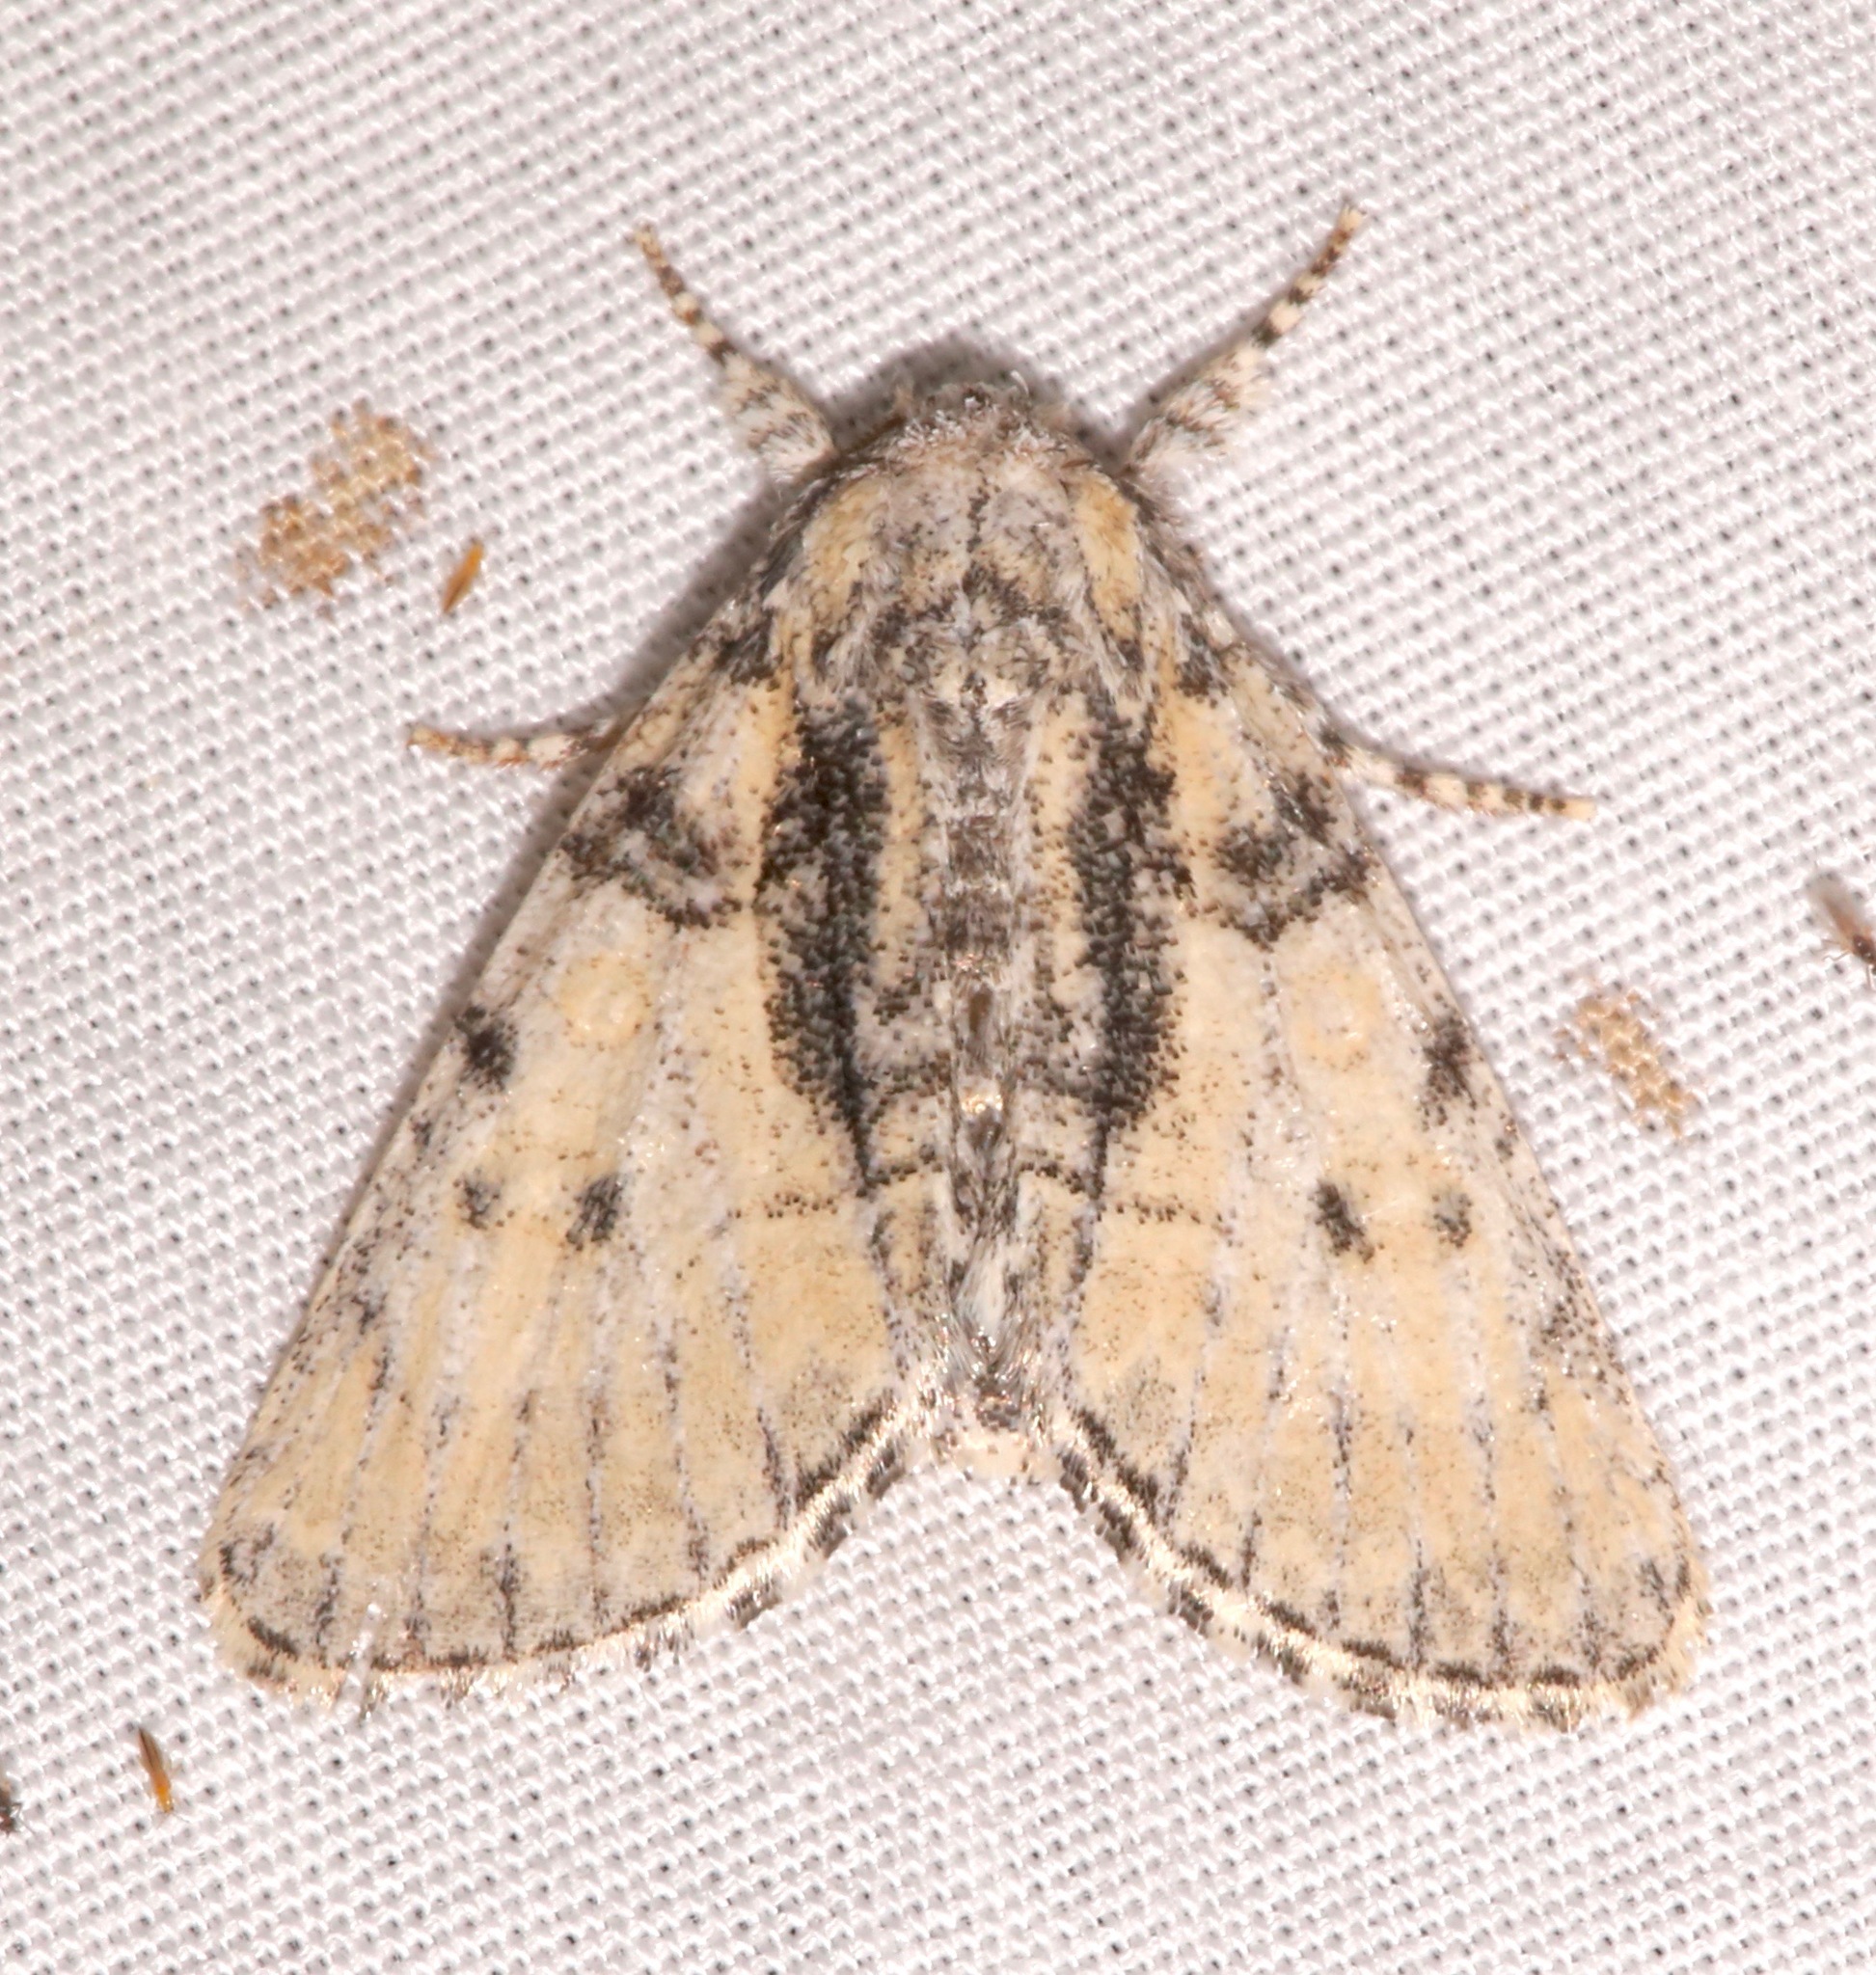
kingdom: Animalia
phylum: Arthropoda
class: Insecta
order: Lepidoptera
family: Noctuidae
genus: Raphia
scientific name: Raphia frater
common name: Brother
